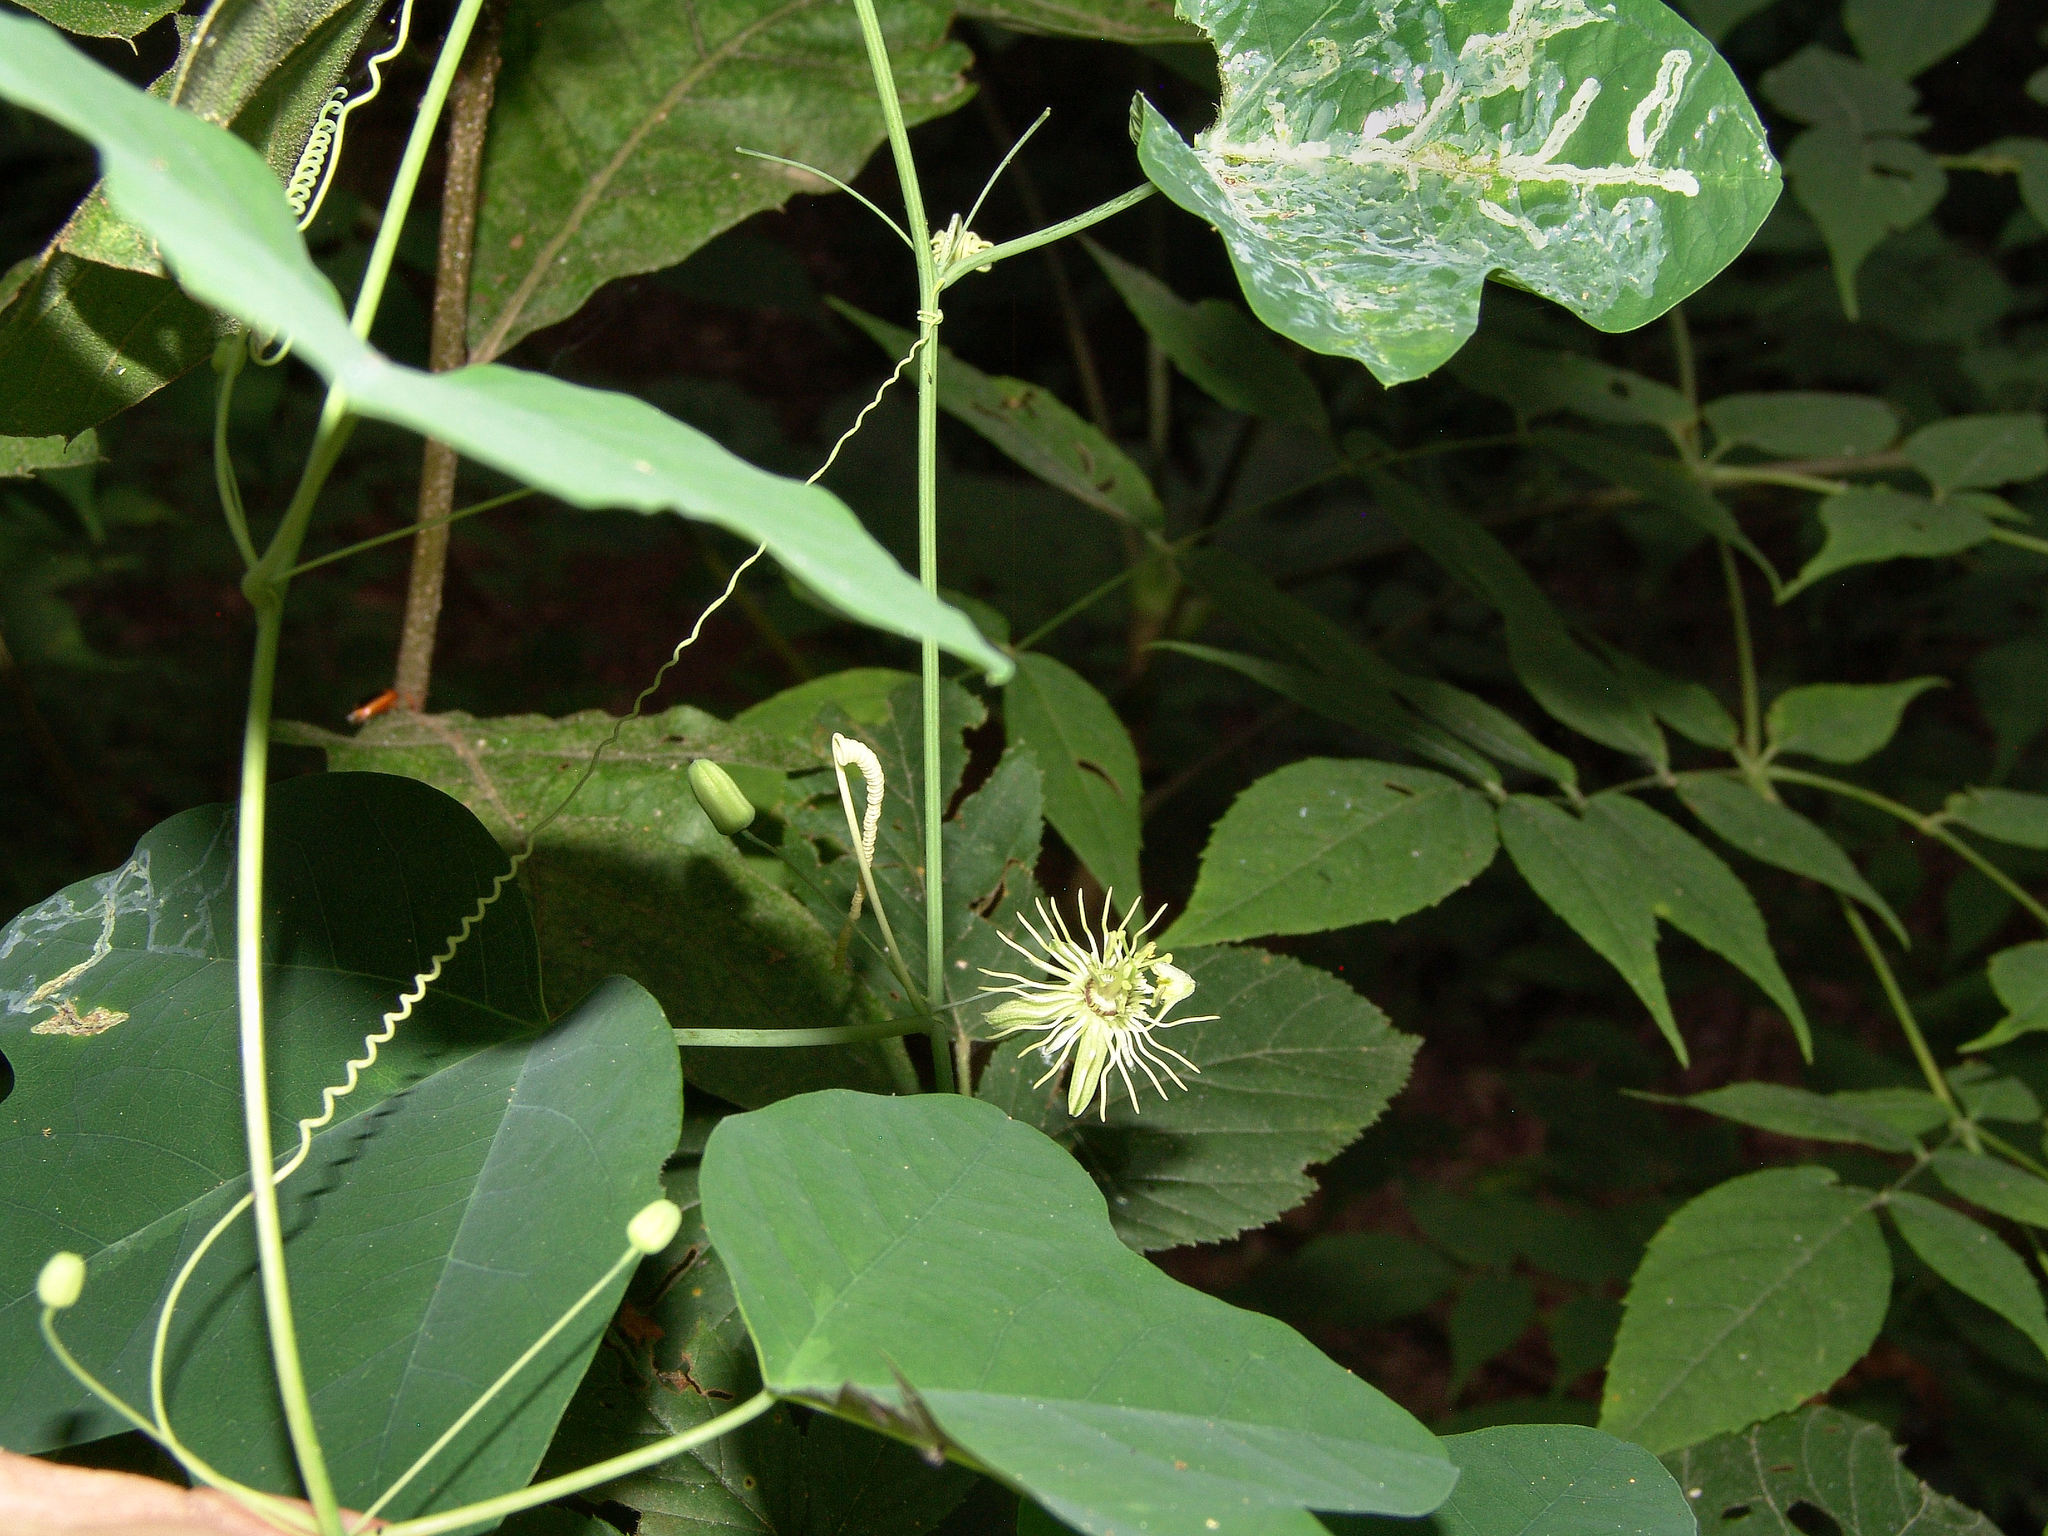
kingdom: Plantae
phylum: Tracheophyta
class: Magnoliopsida
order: Malpighiales
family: Passifloraceae
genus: Passiflora
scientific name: Passiflora lutea
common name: Yellow passionflower
